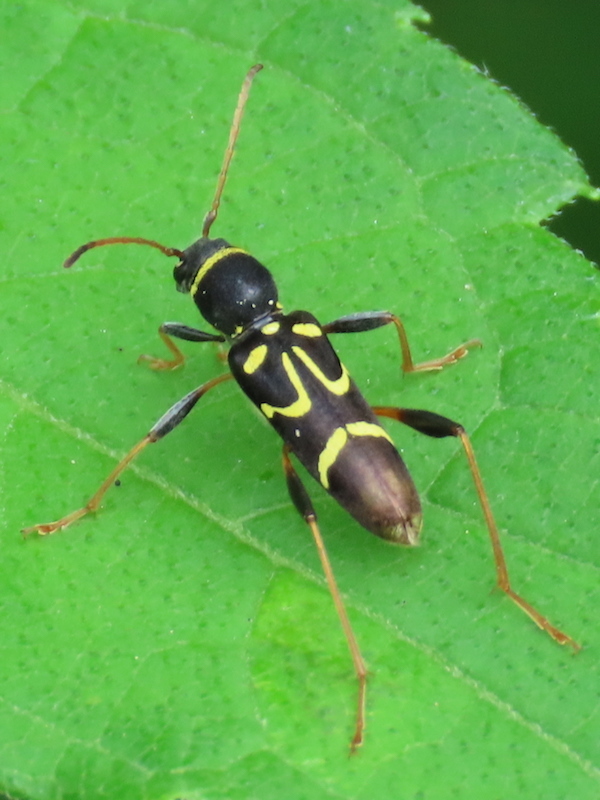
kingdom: Animalia
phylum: Arthropoda
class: Insecta
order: Coleoptera
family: Cerambycidae
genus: Clytus
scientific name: Clytus ruricola
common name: Round-necked longhorn beetle
